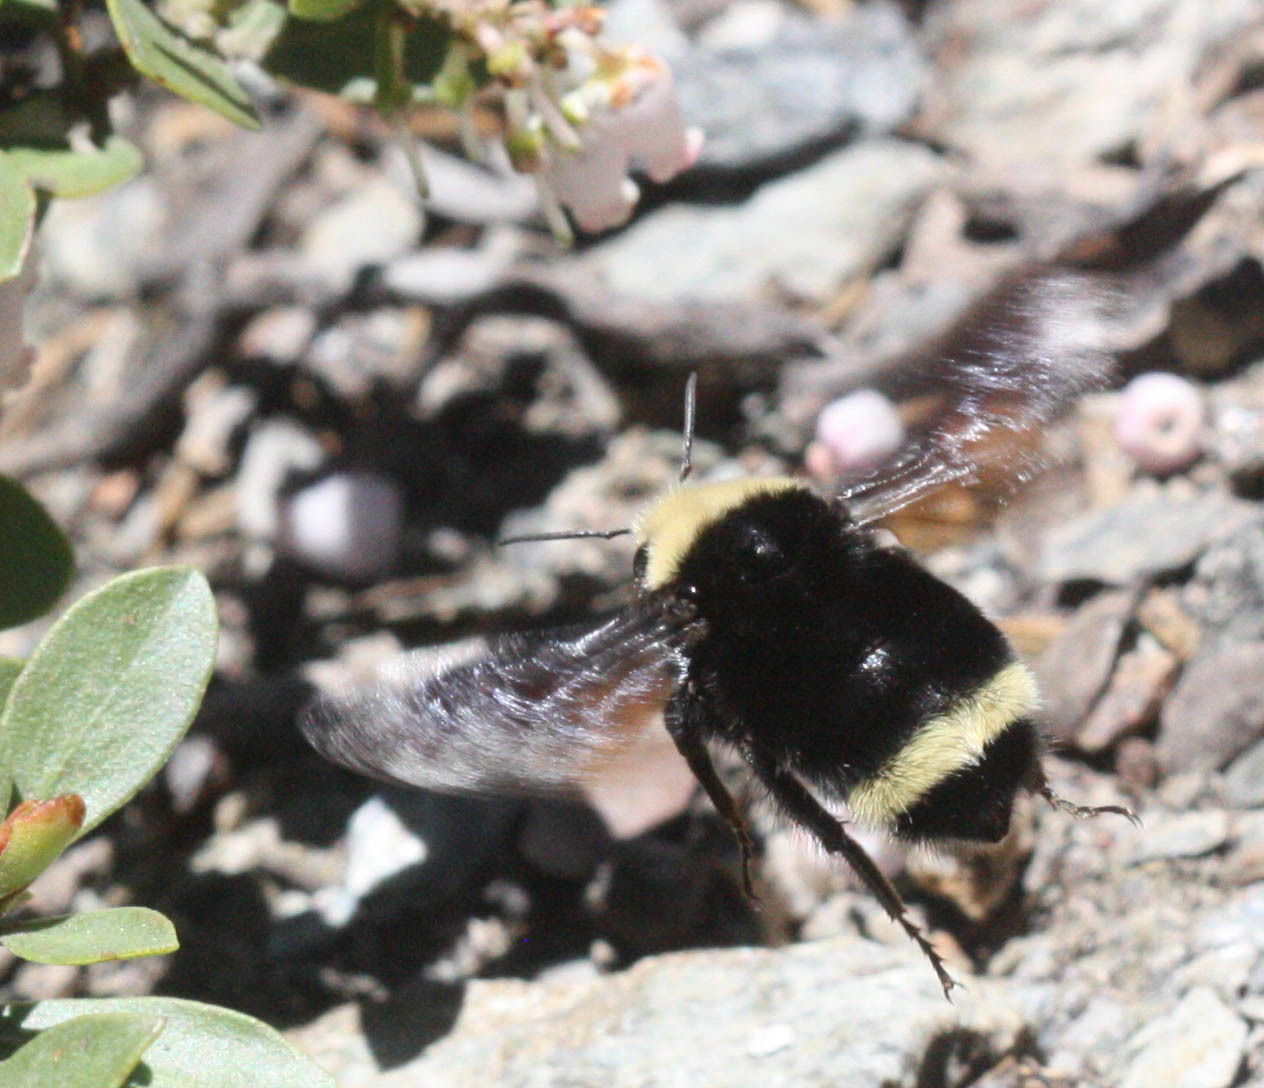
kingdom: Animalia
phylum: Arthropoda
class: Insecta
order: Hymenoptera
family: Apidae
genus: Bombus
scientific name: Bombus vosnesenskii
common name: Vosnesensky bumble bee
